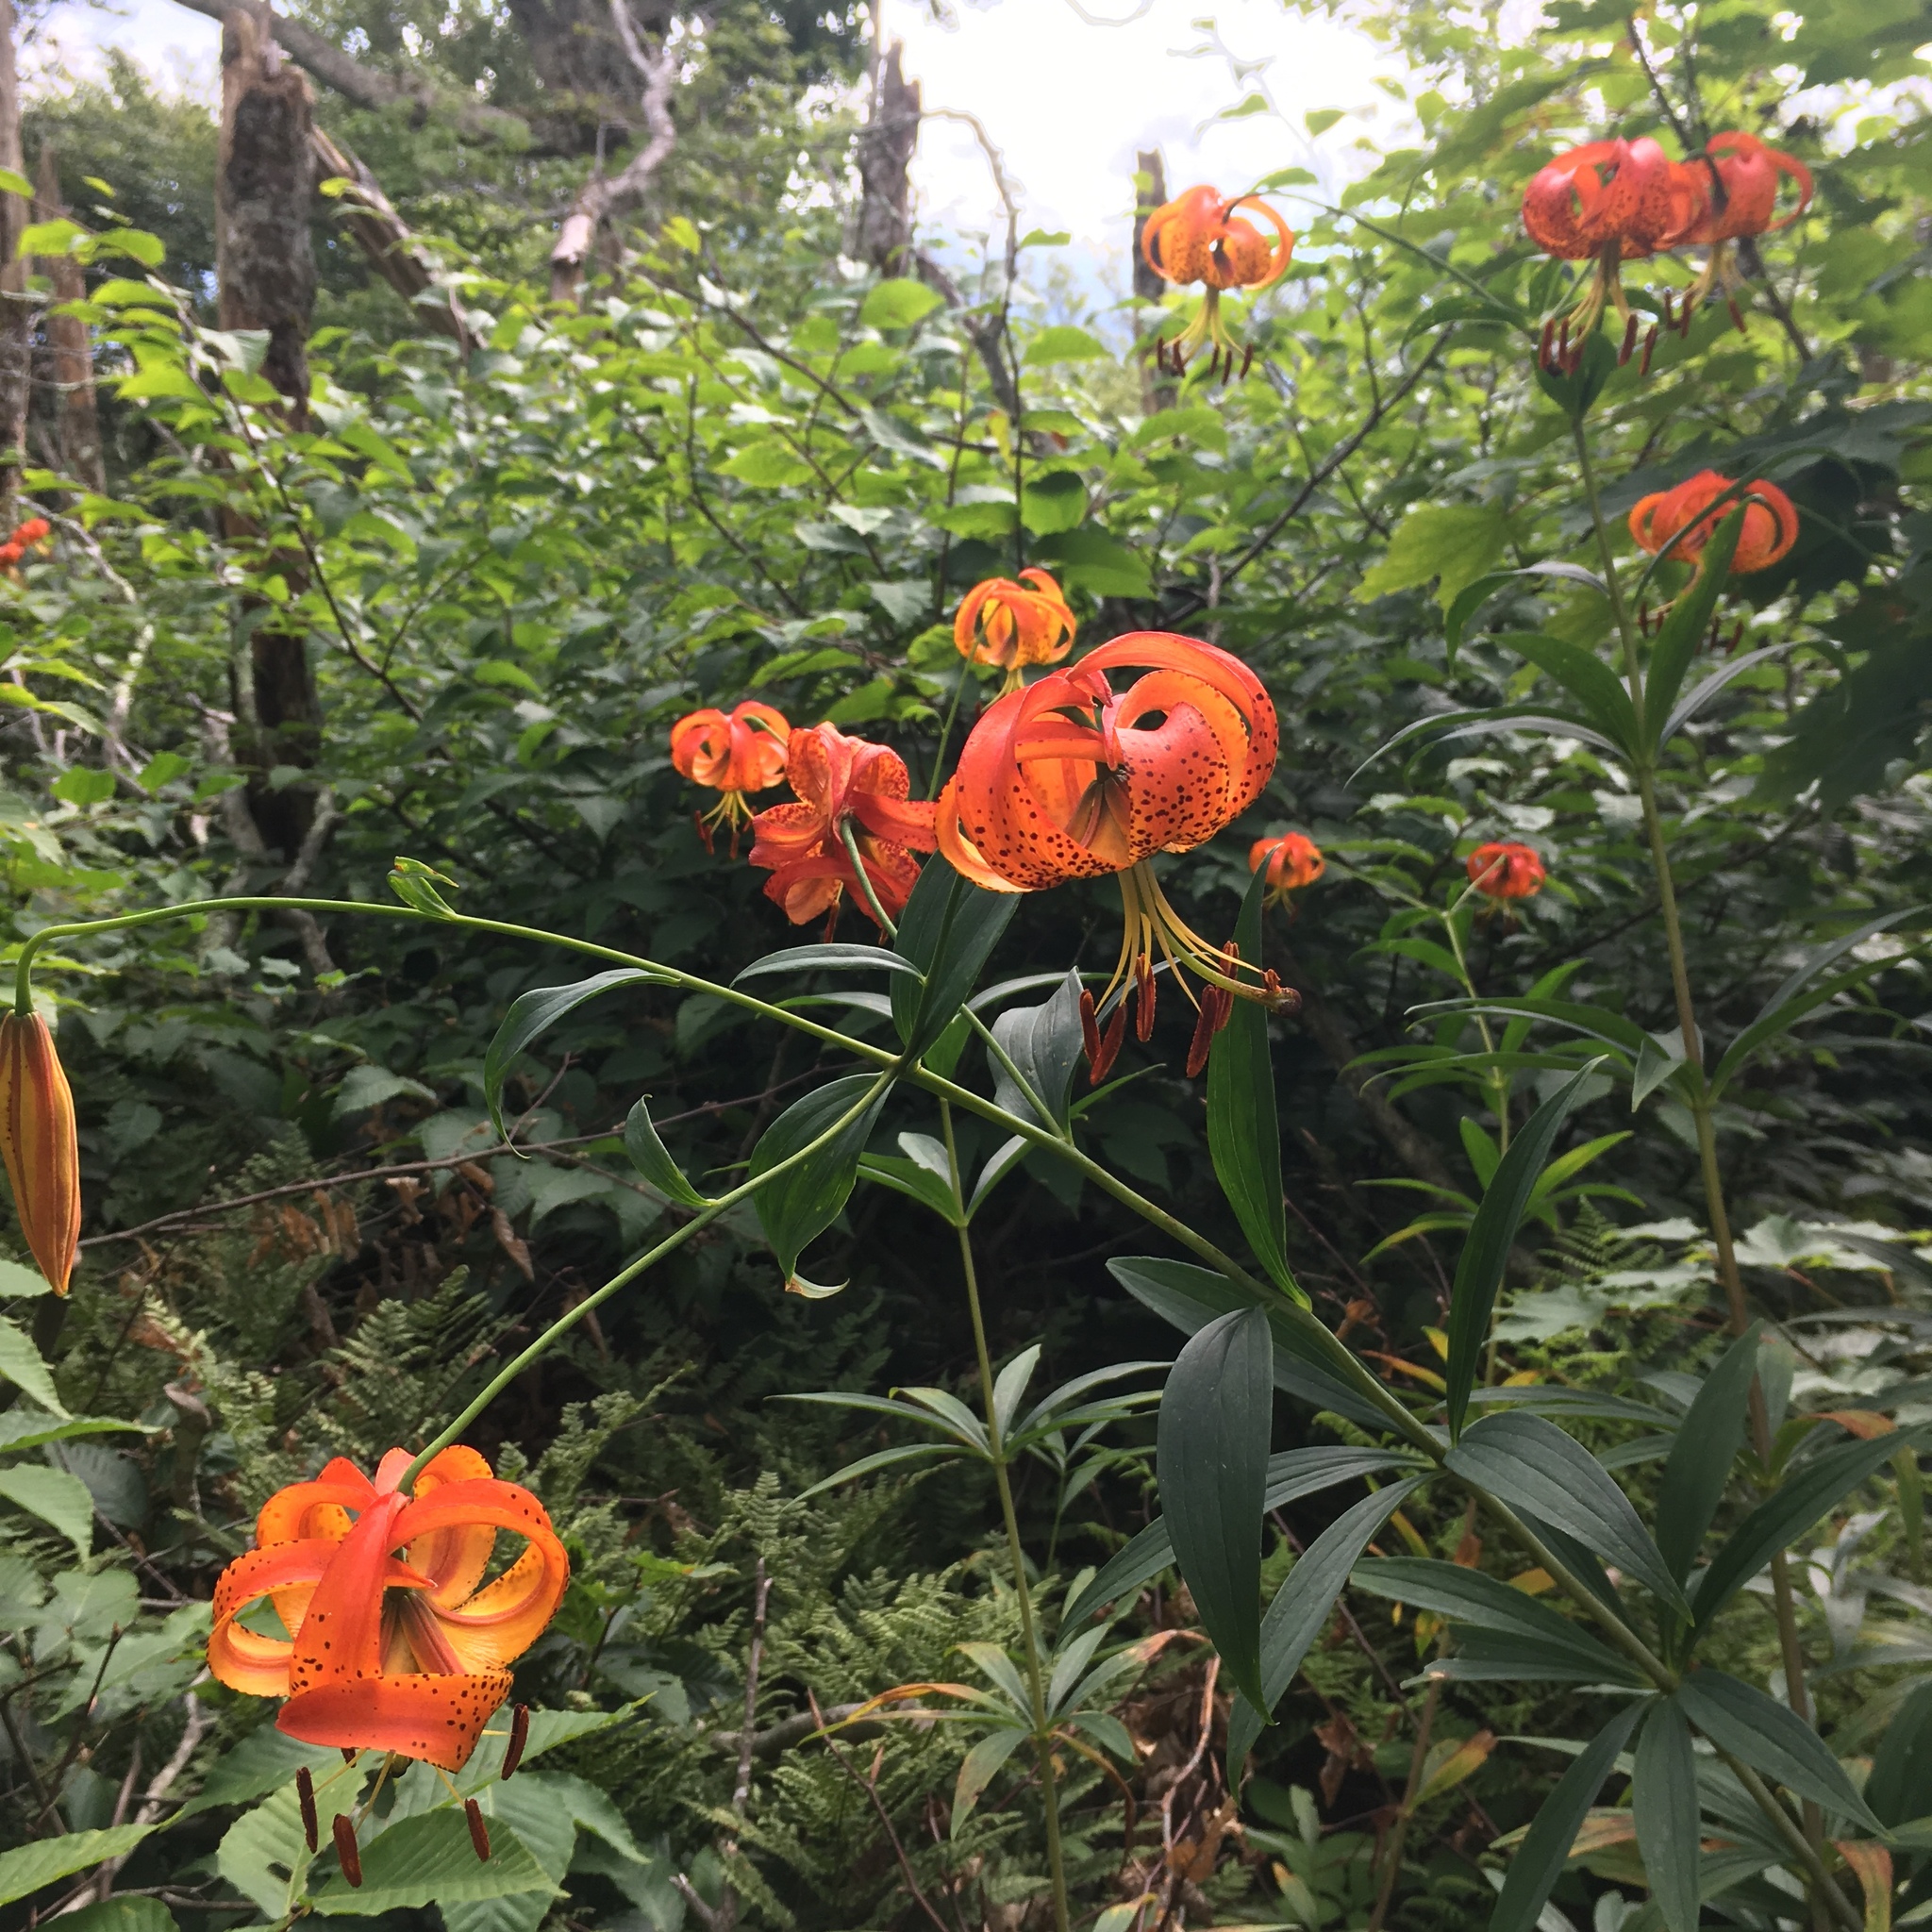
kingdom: Plantae
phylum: Tracheophyta
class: Liliopsida
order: Liliales
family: Liliaceae
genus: Lilium
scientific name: Lilium superbum
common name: American turk's-cap lily
